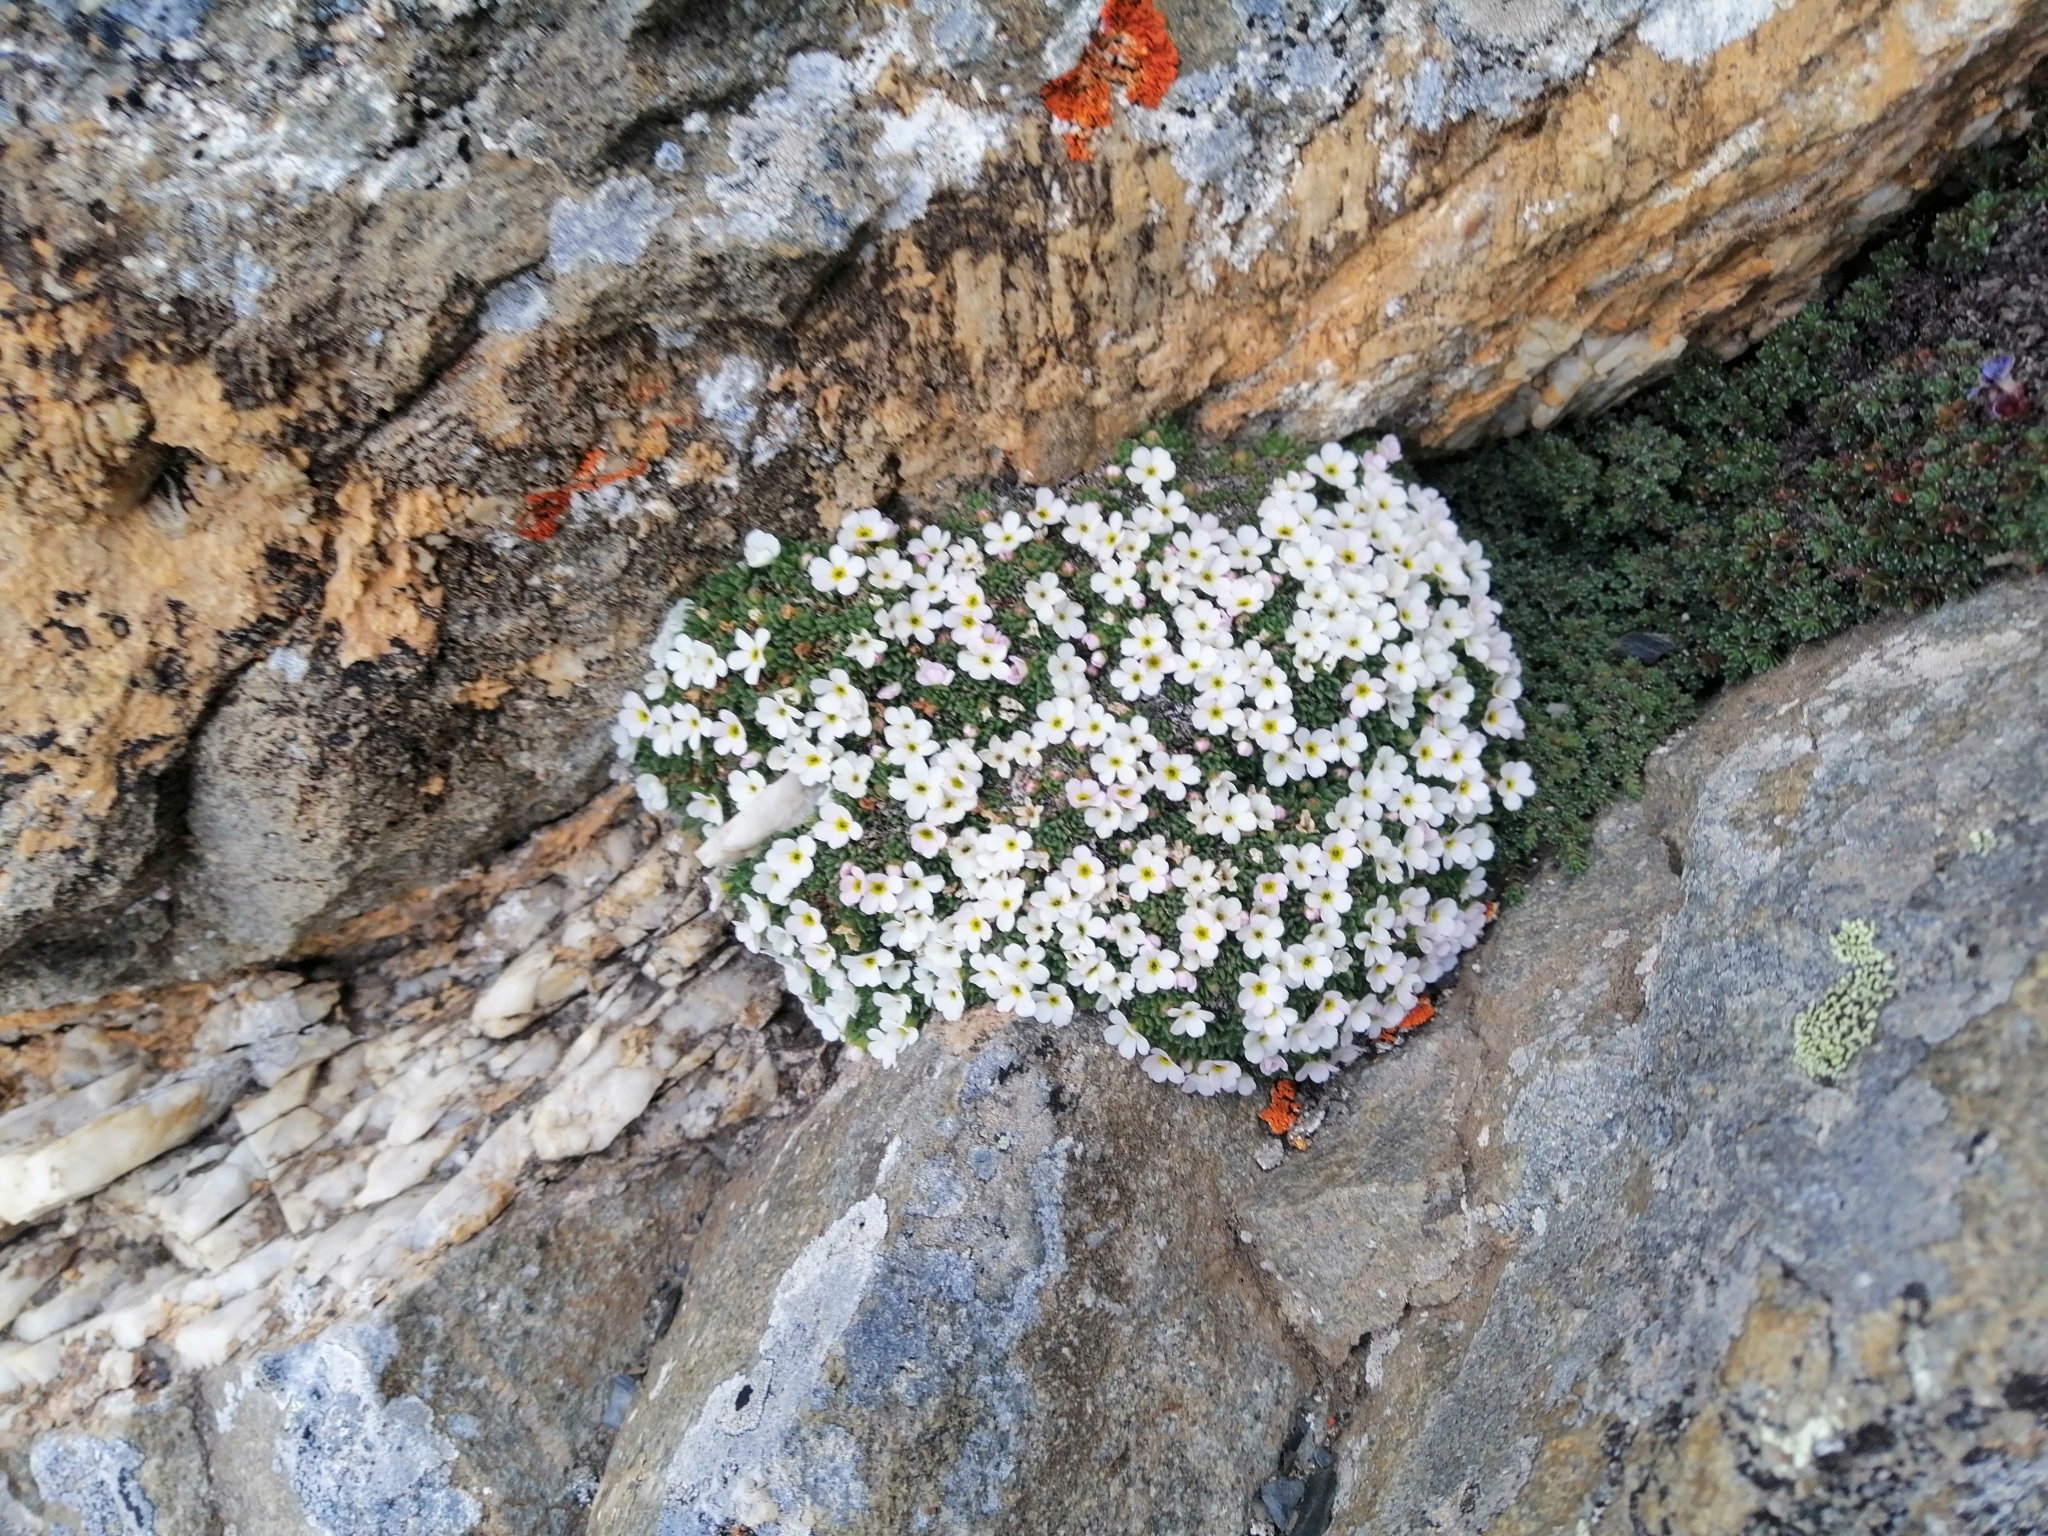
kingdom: Plantae
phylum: Tracheophyta
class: Magnoliopsida
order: Ericales
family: Primulaceae
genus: Androsace
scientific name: Androsace delphinensis
